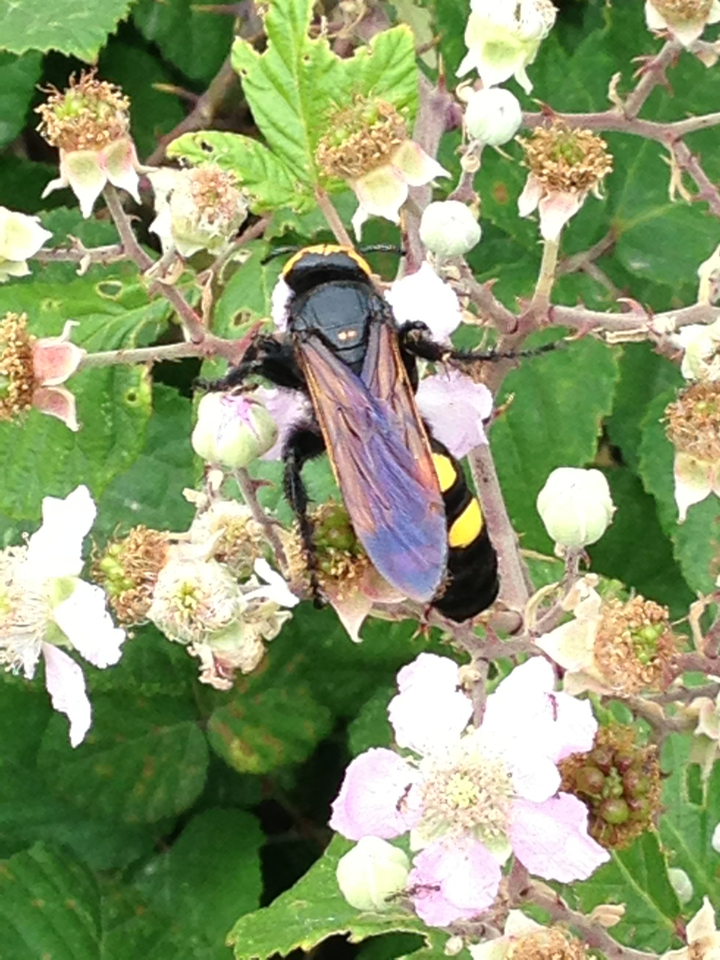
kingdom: Animalia
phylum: Arthropoda
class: Insecta
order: Hymenoptera
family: Scoliidae
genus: Megascolia
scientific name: Megascolia maculata
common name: Mammoth wasp
